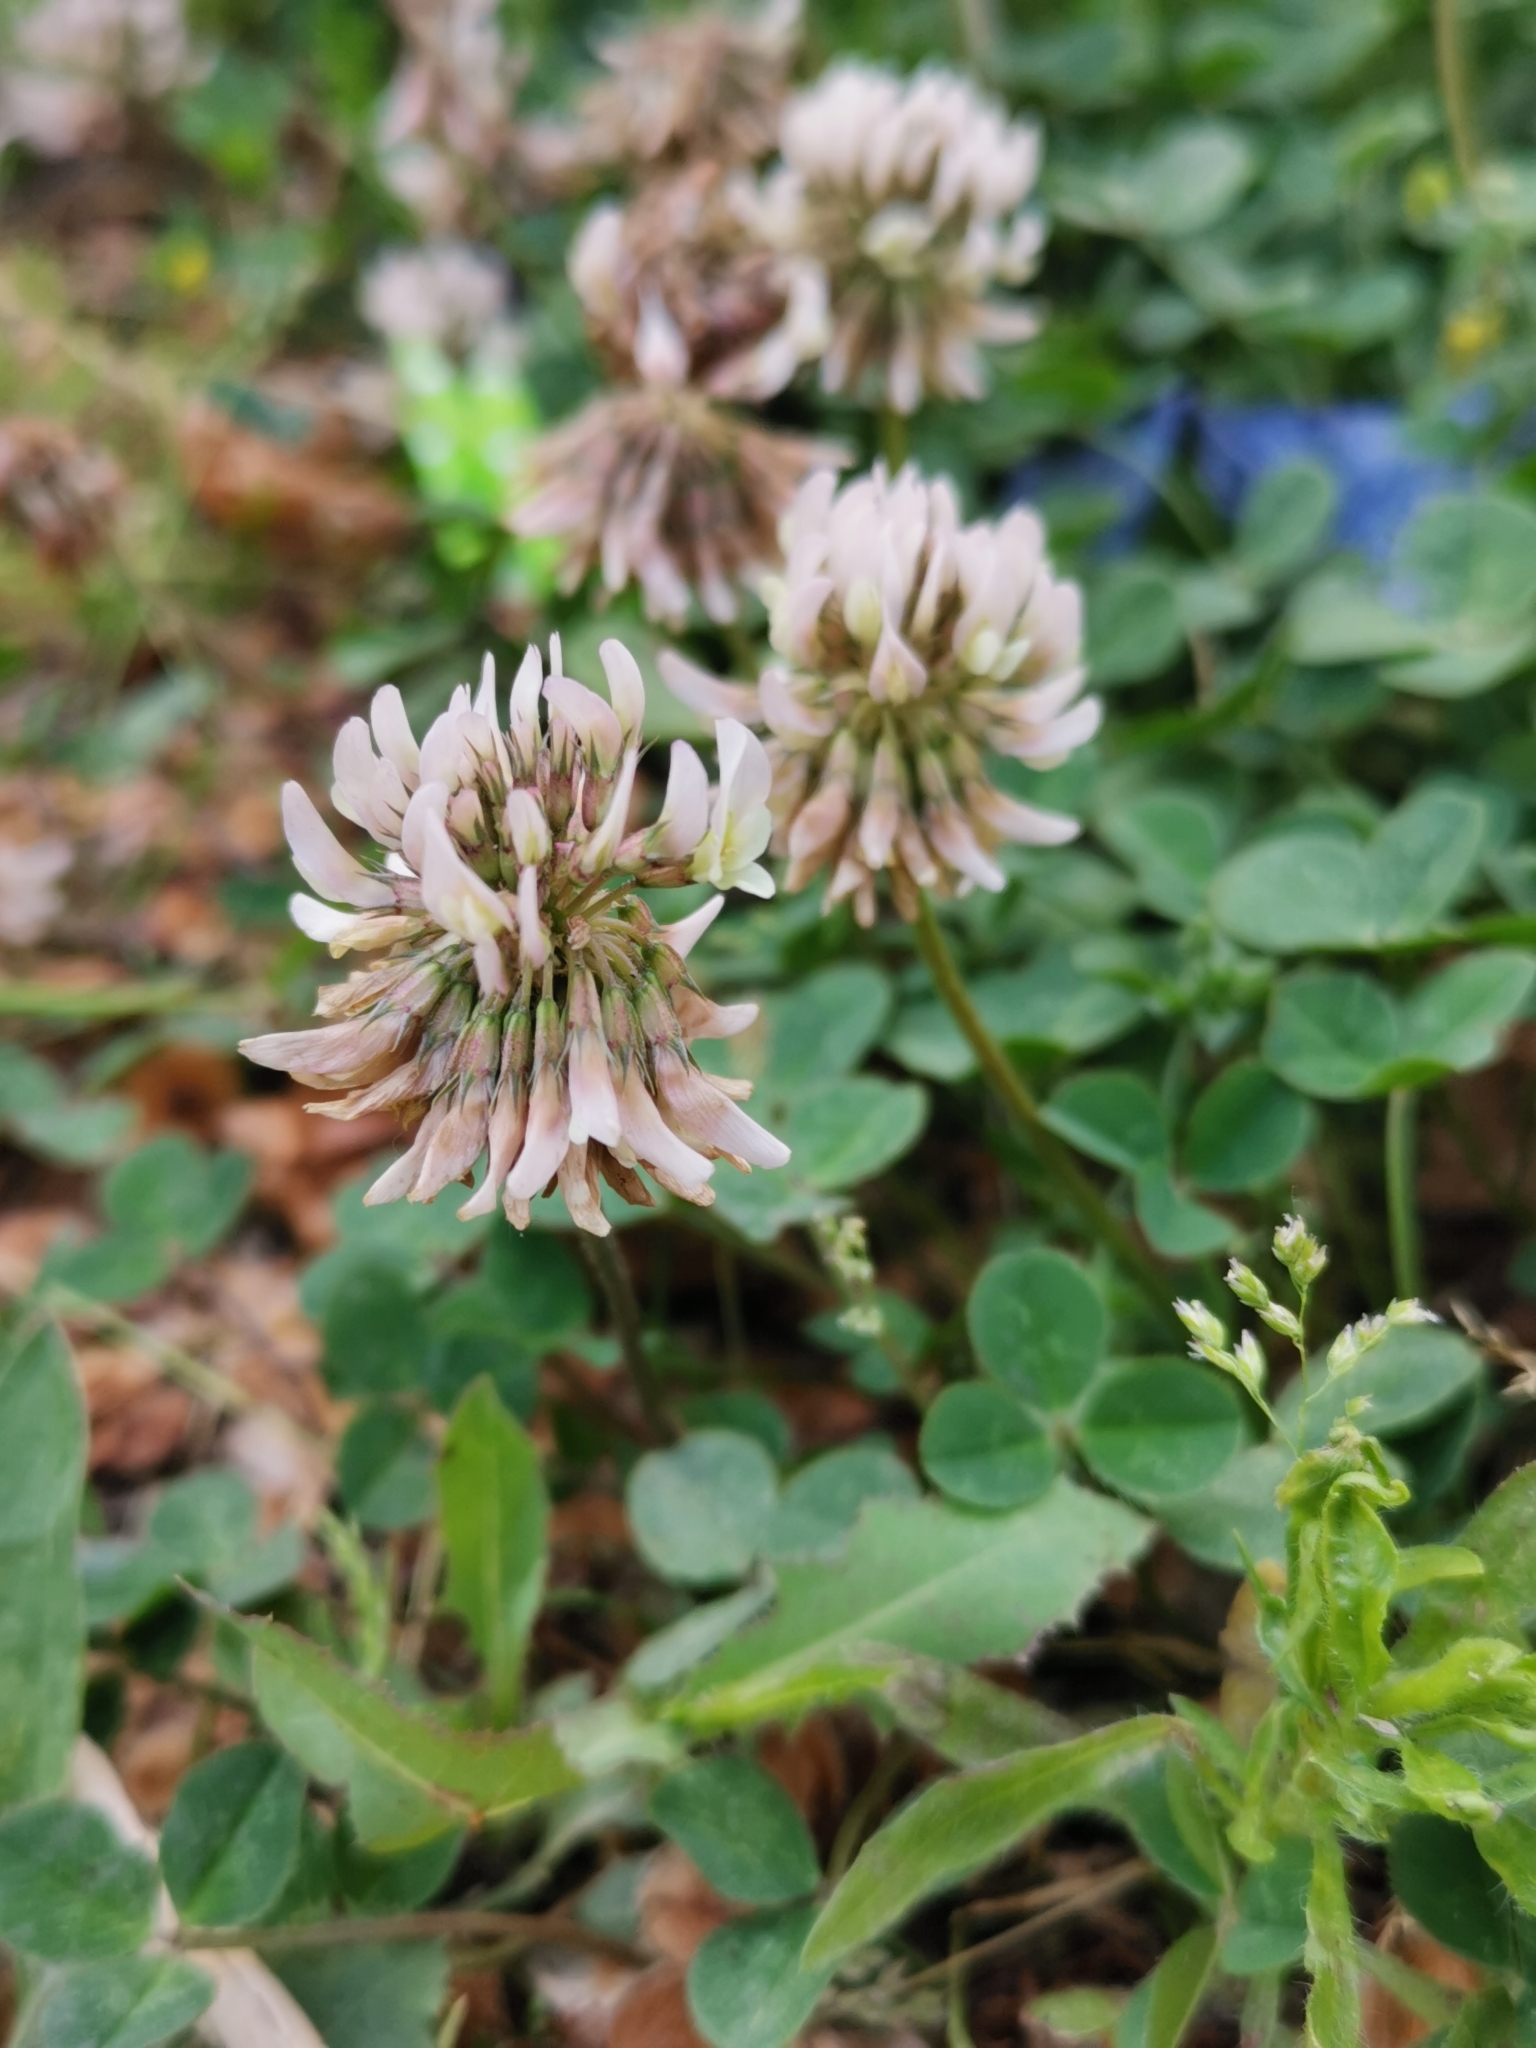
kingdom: Plantae
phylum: Tracheophyta
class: Magnoliopsida
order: Fabales
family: Fabaceae
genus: Trifolium
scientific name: Trifolium repens
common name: White clover
